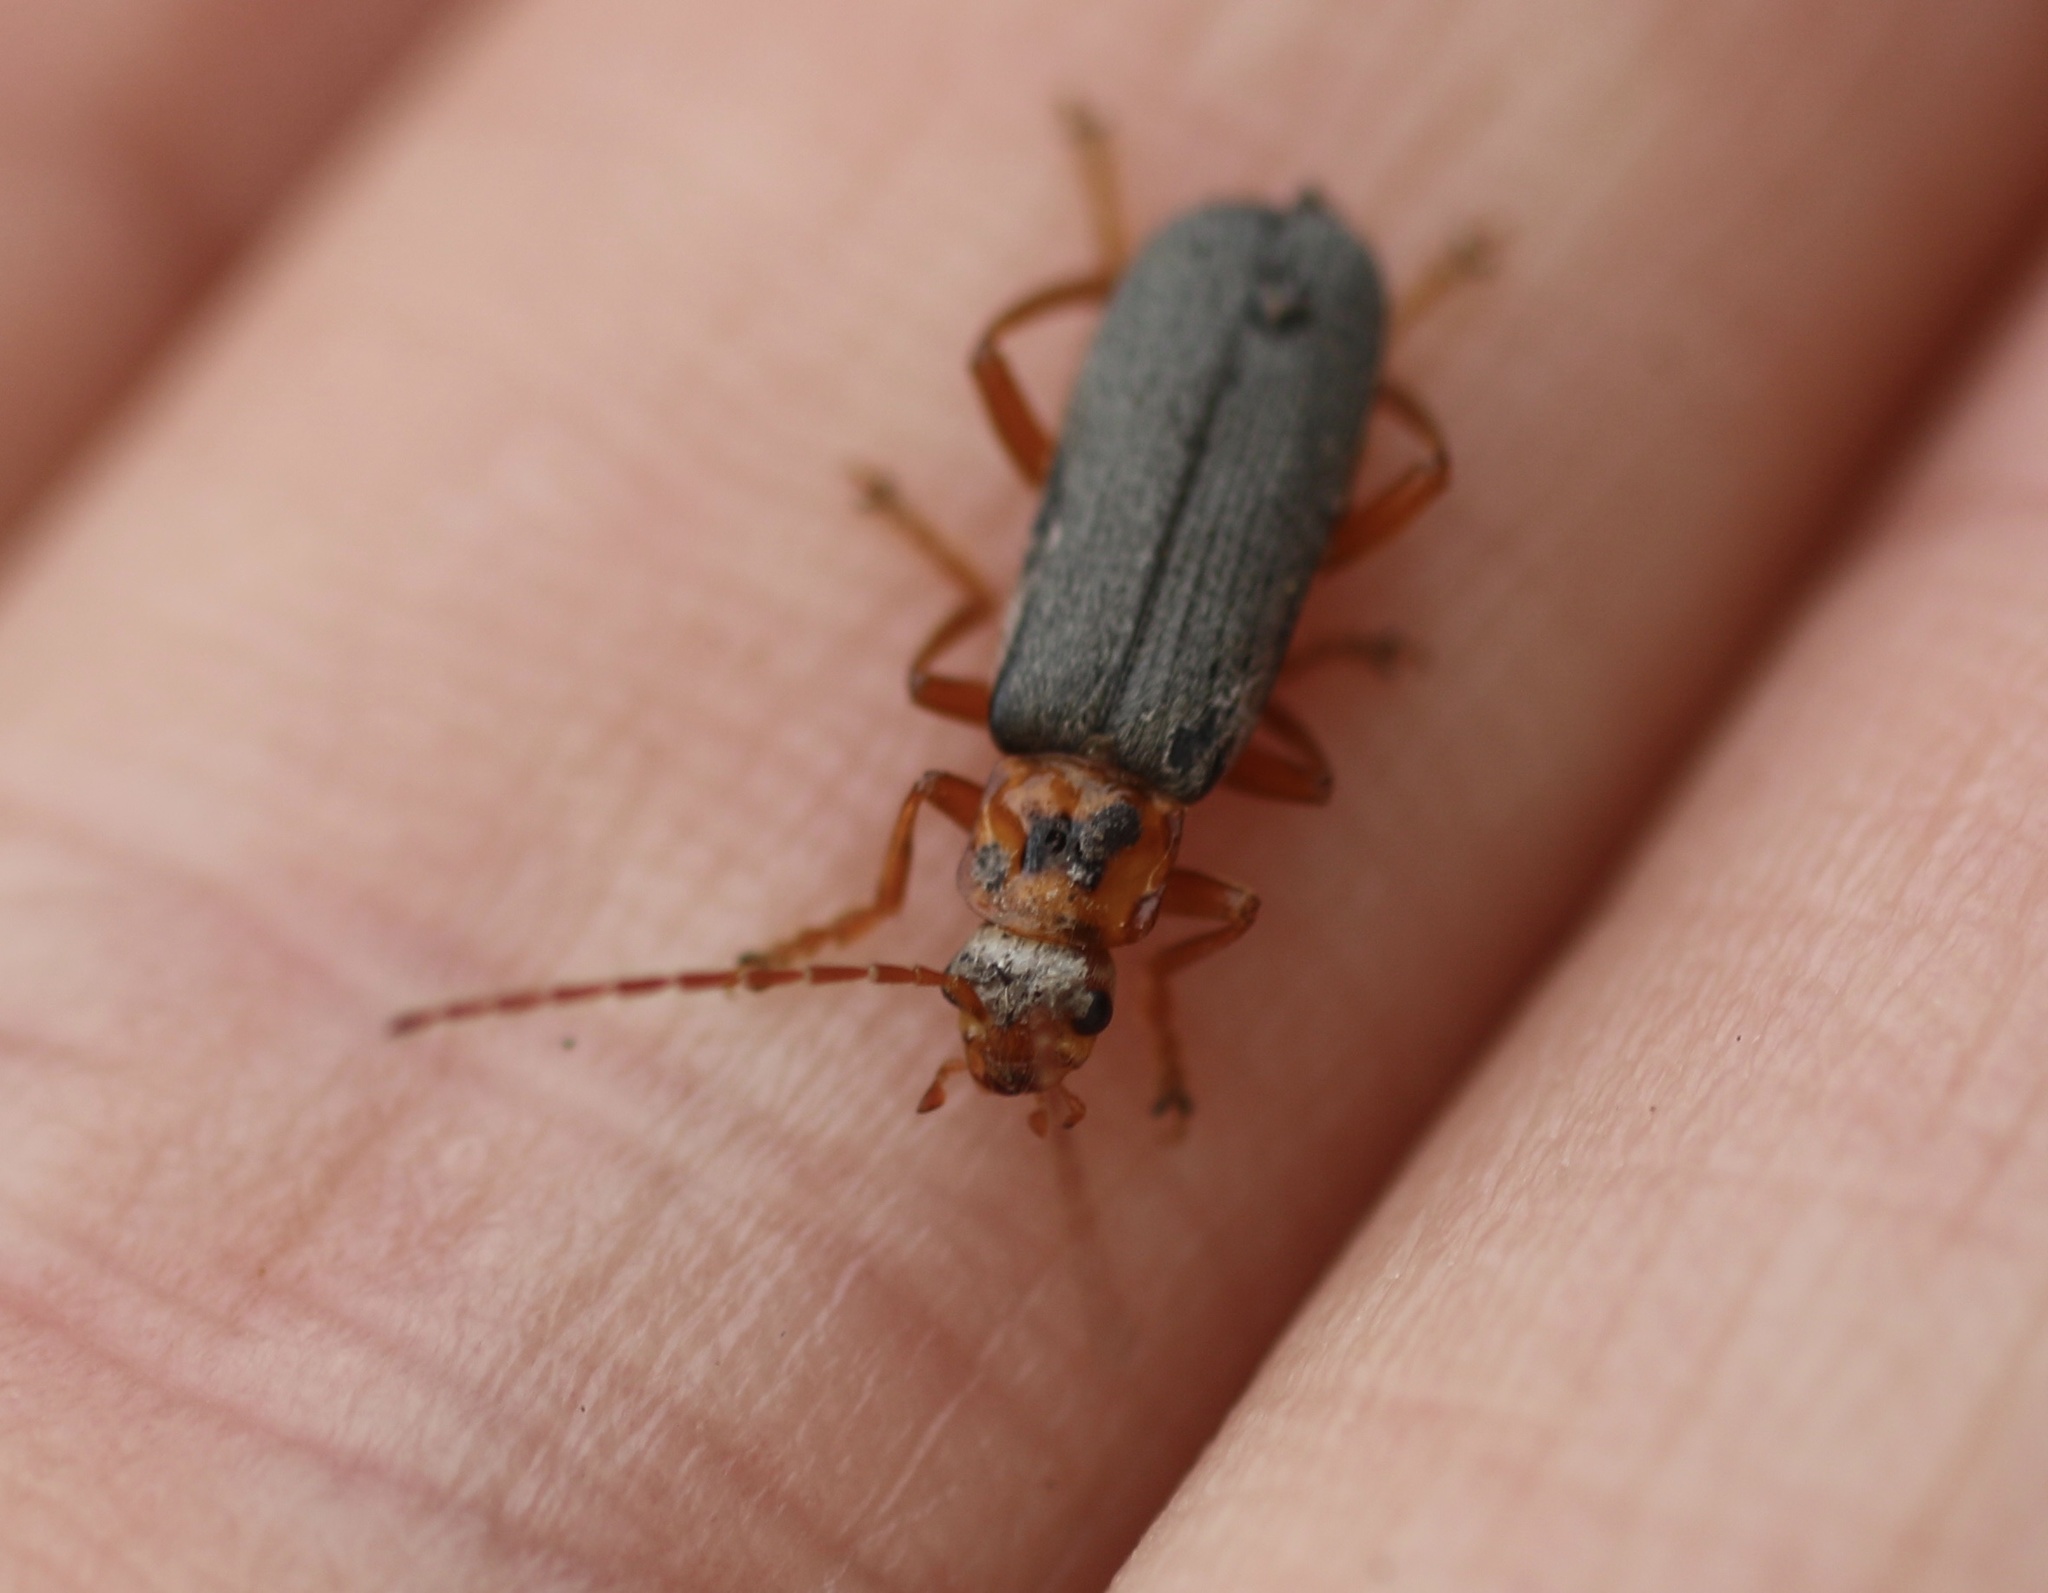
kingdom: Animalia
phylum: Arthropoda
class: Insecta
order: Coleoptera
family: Cantharidae
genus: Cultellunguis
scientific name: Cultellunguis americanus
